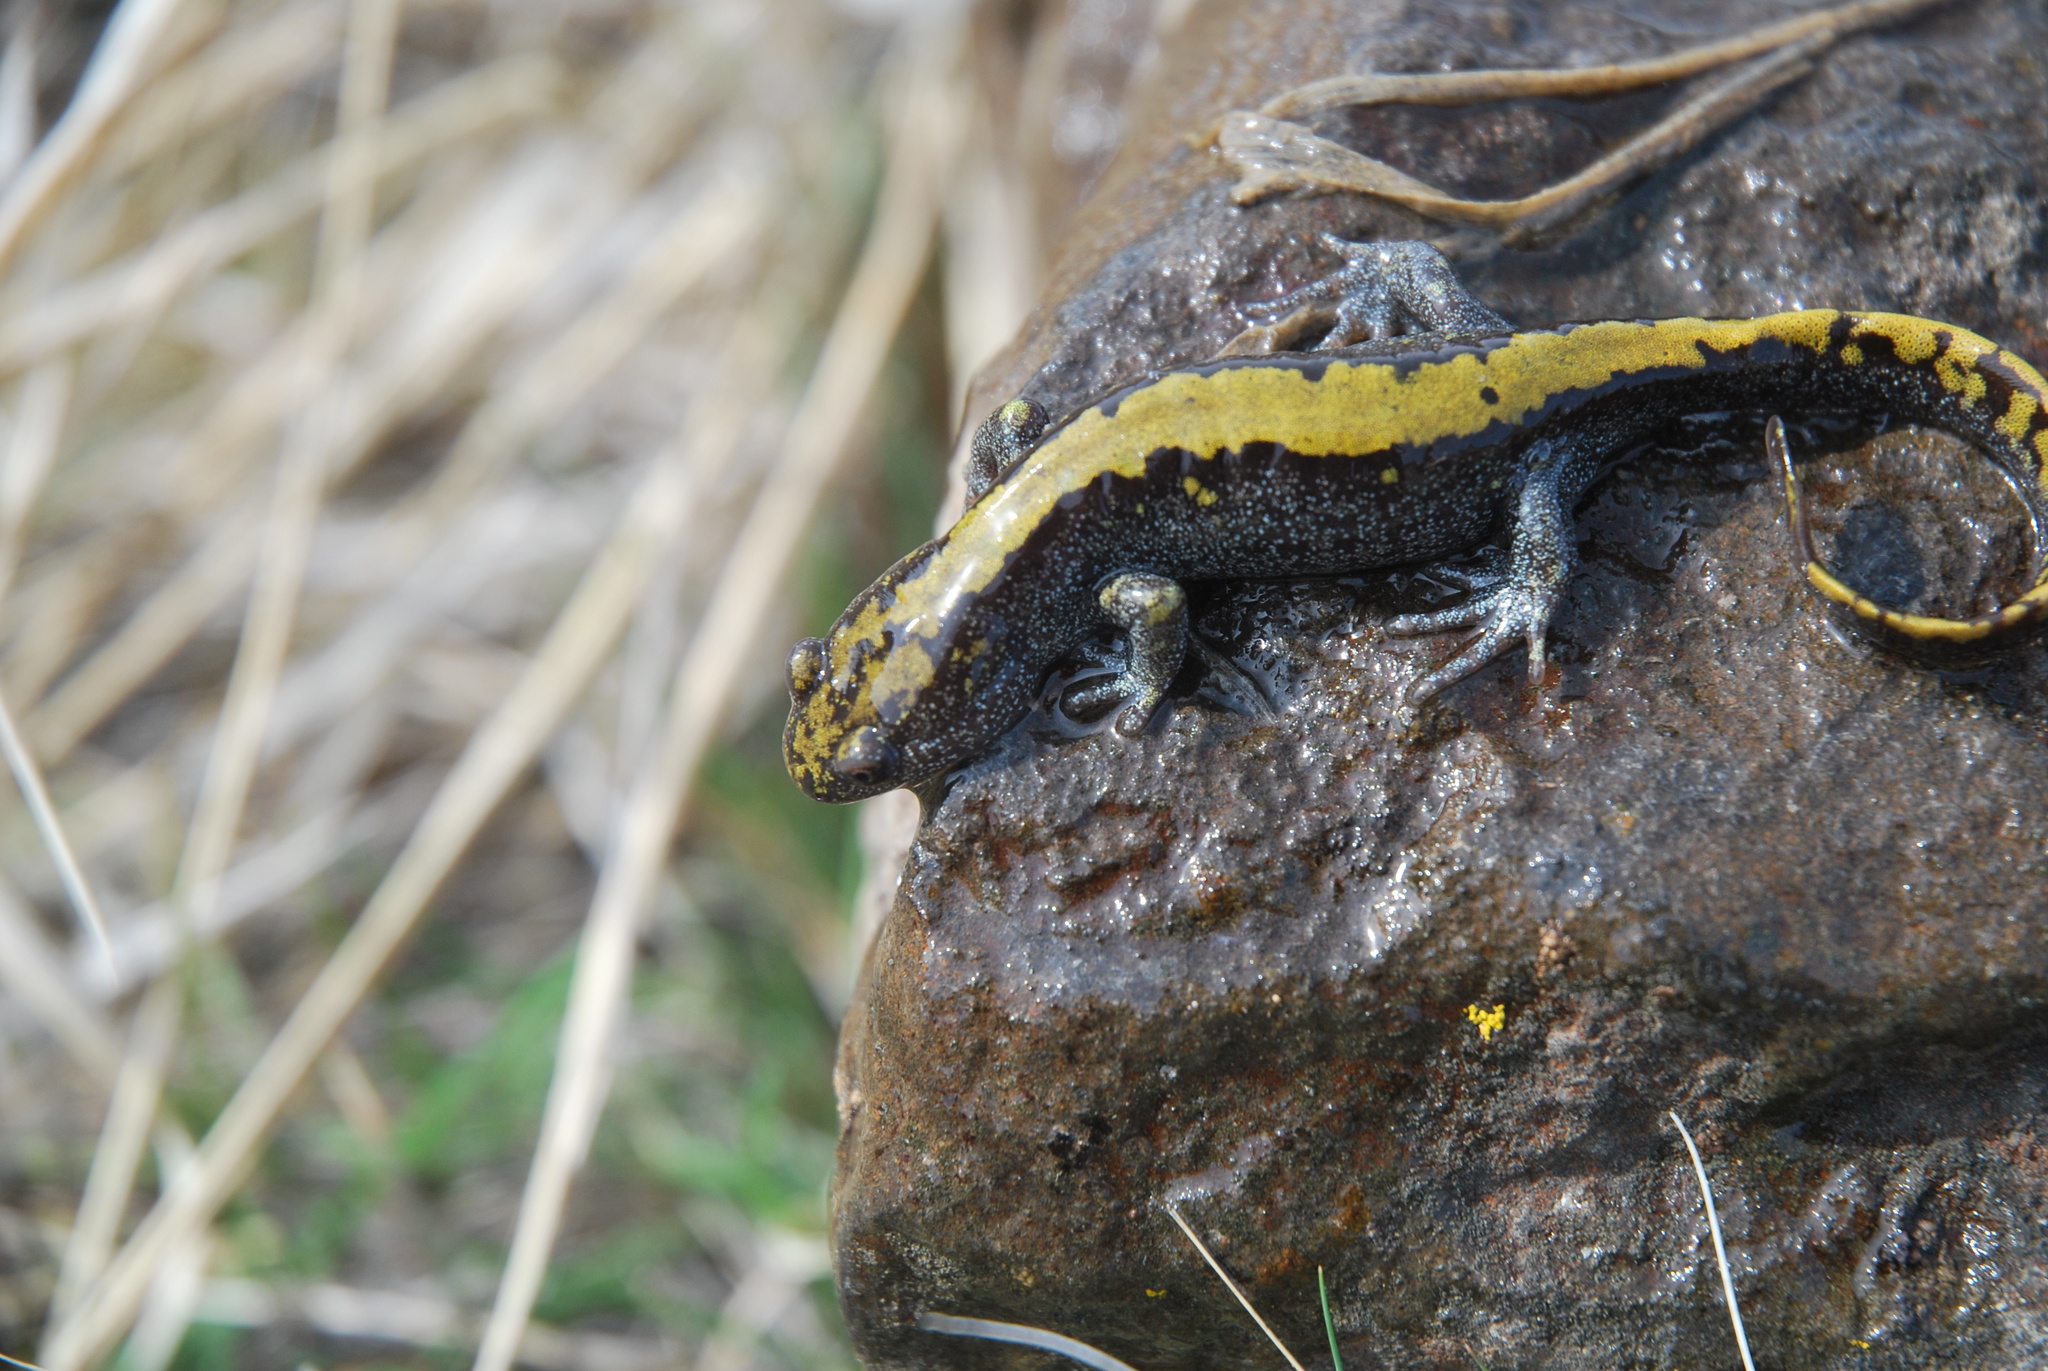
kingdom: Animalia
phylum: Chordata
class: Amphibia
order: Caudata
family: Ambystomatidae
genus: Ambystoma
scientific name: Ambystoma macrodactylum
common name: Long-toed salamander
